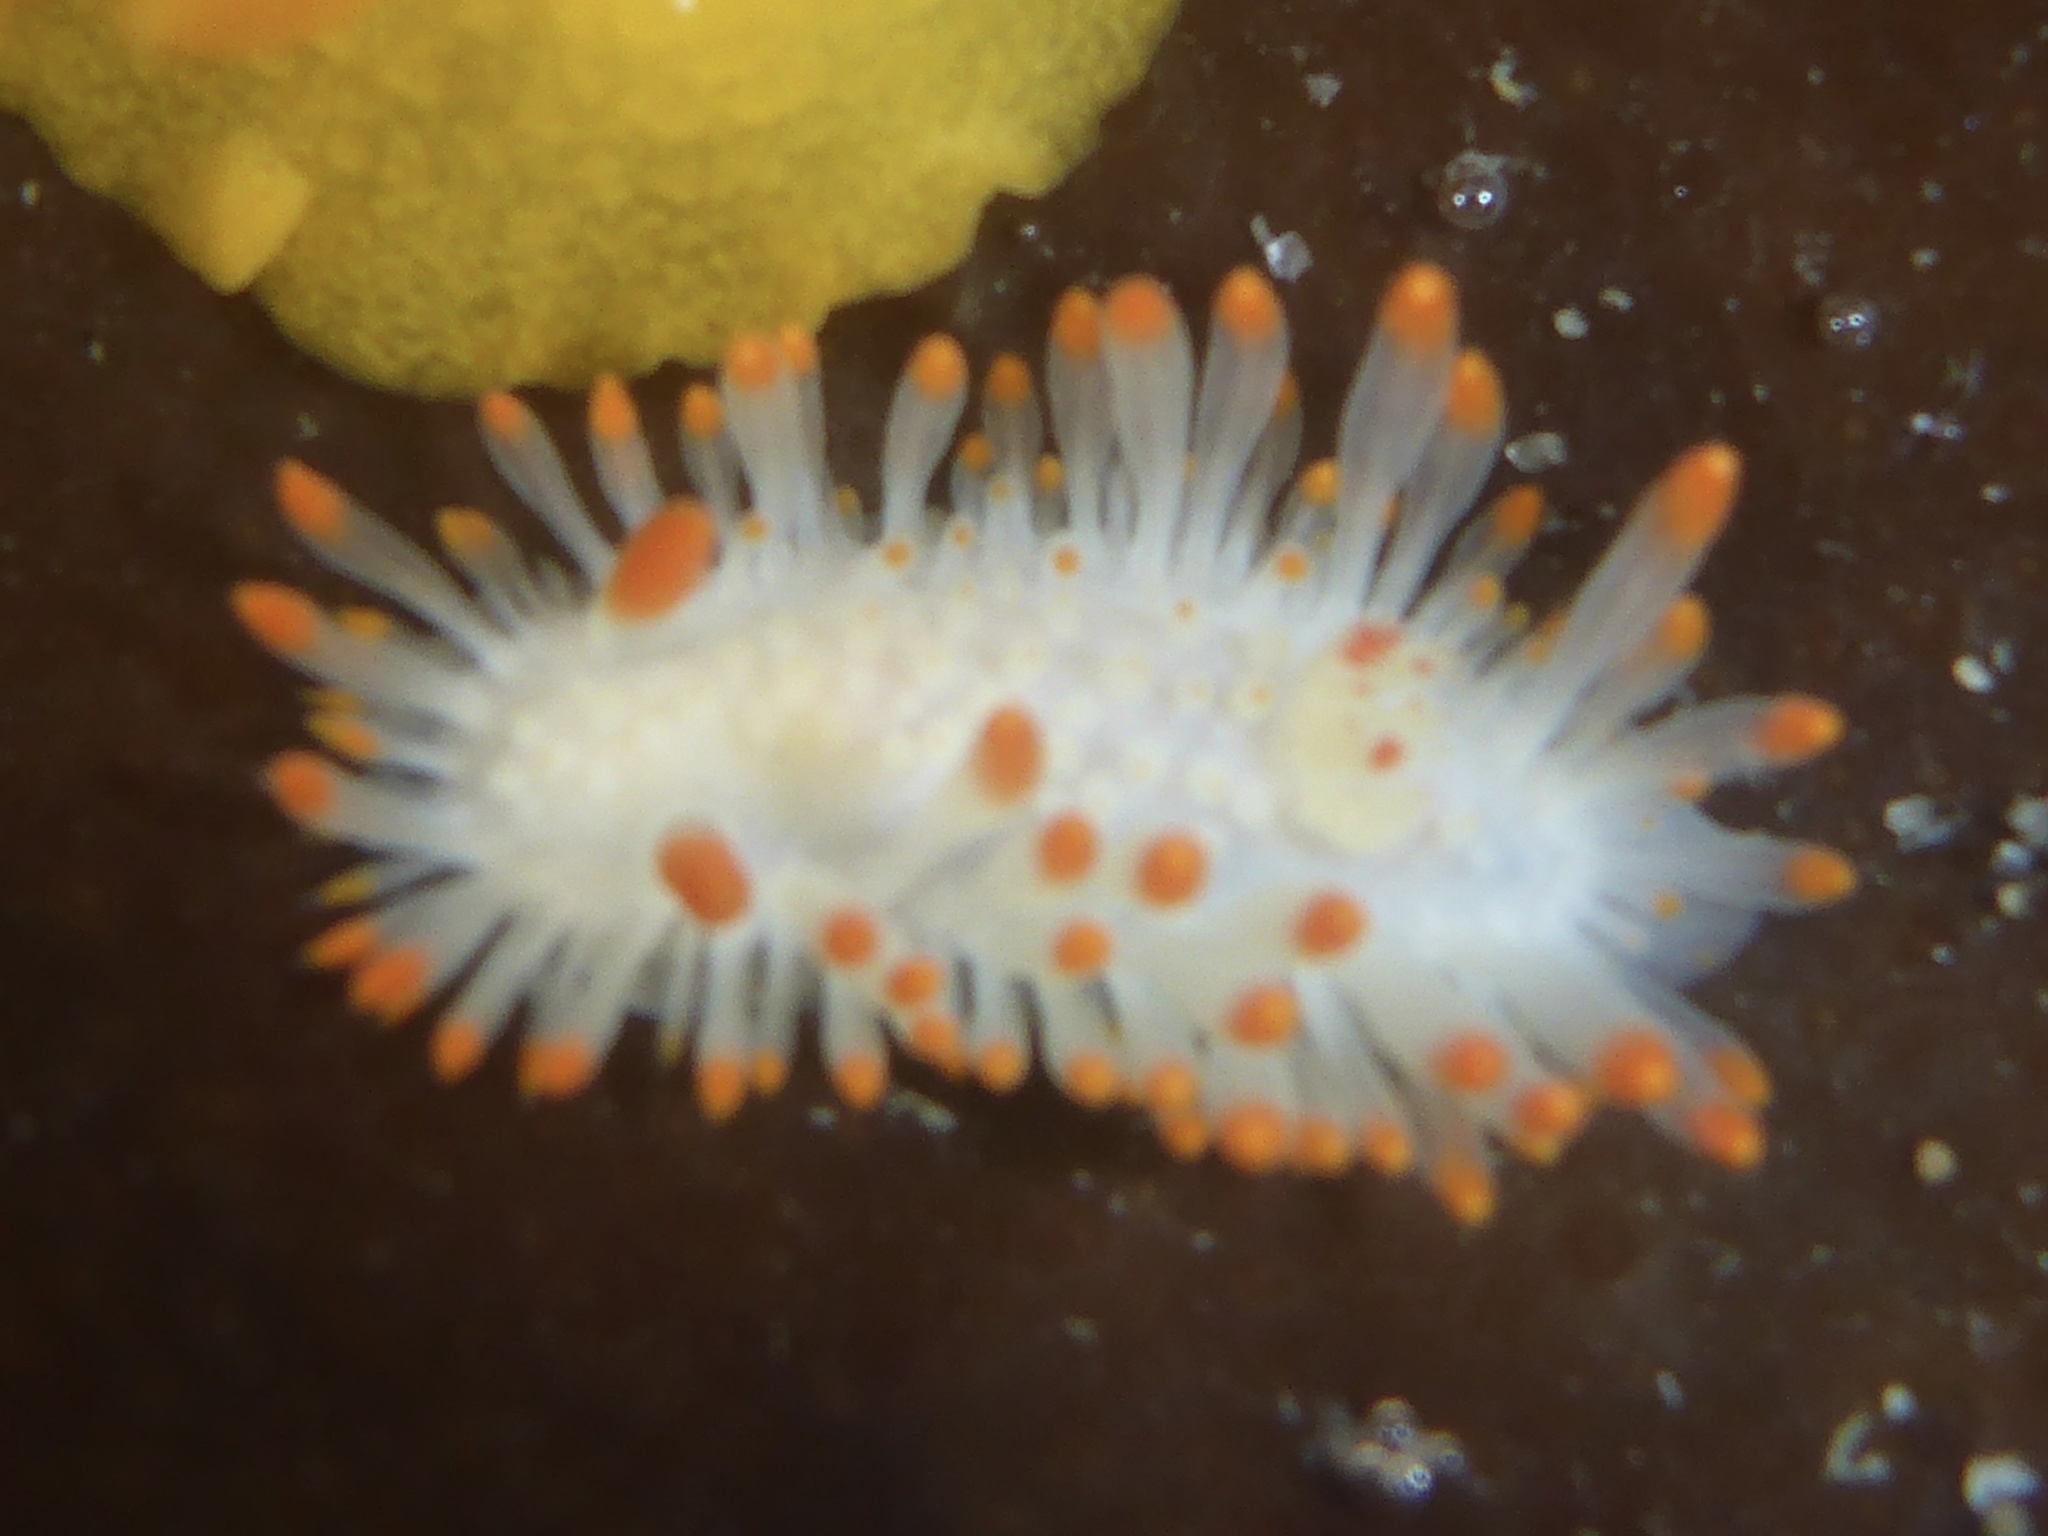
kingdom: Animalia
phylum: Mollusca
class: Gastropoda
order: Nudibranchia
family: Polyceridae
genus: Limacia
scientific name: Limacia cockerelli
